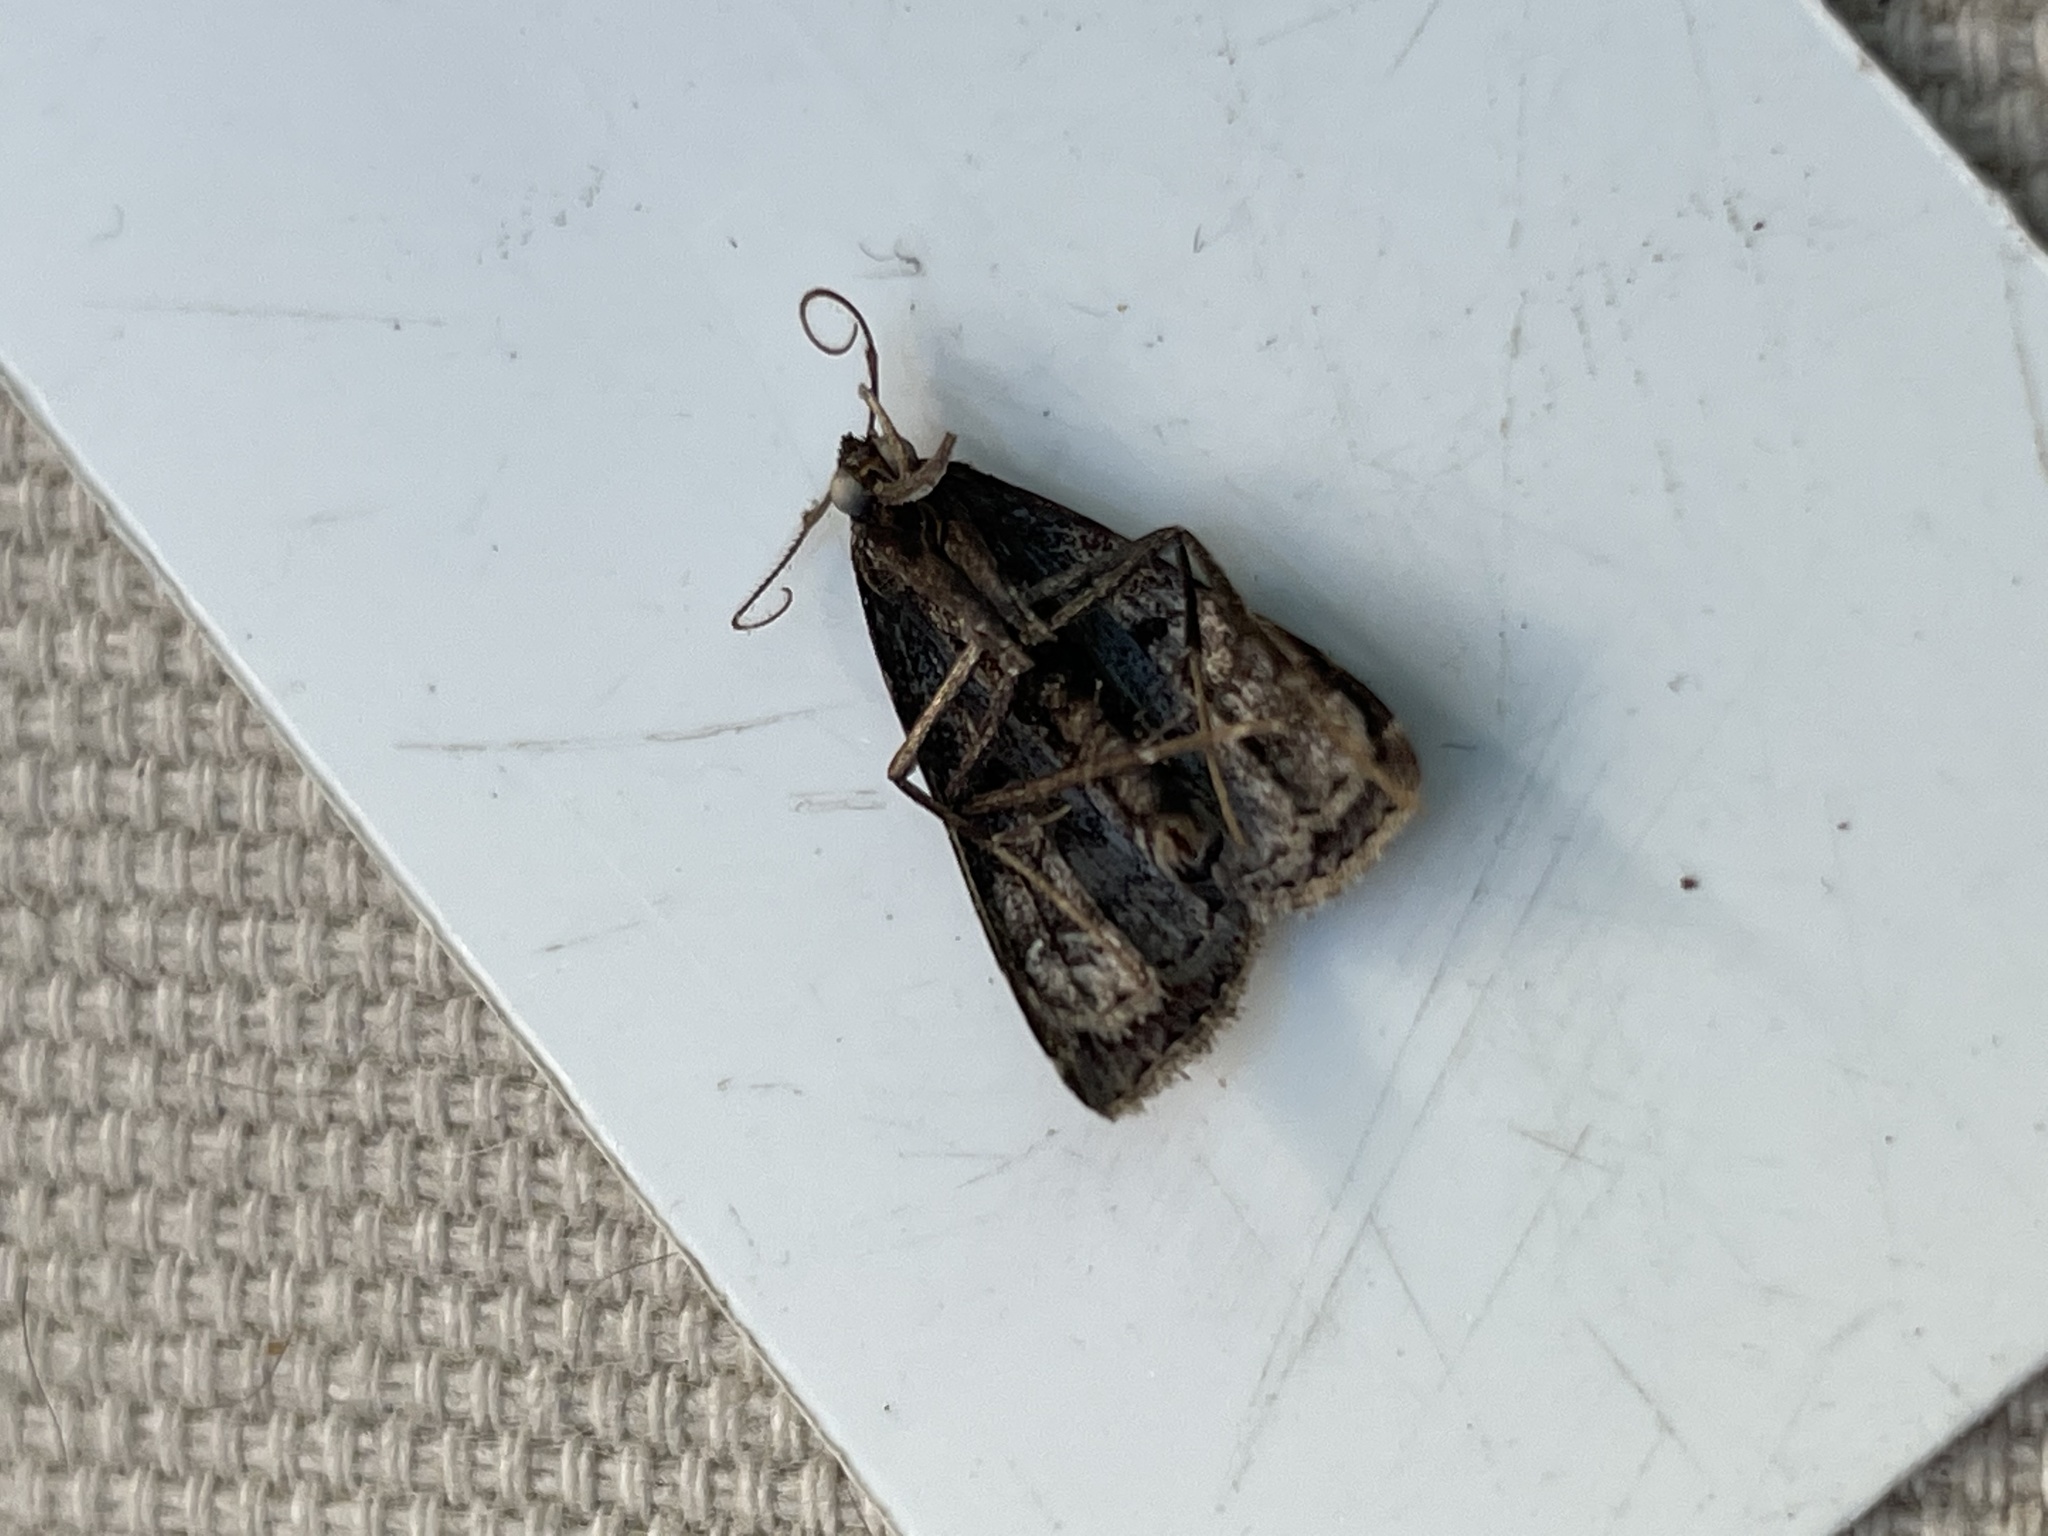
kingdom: Animalia
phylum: Arthropoda
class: Insecta
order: Lepidoptera
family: Erebidae
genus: Tetanolita
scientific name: Tetanolita mynesalis
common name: Smoky tetanolita moth
